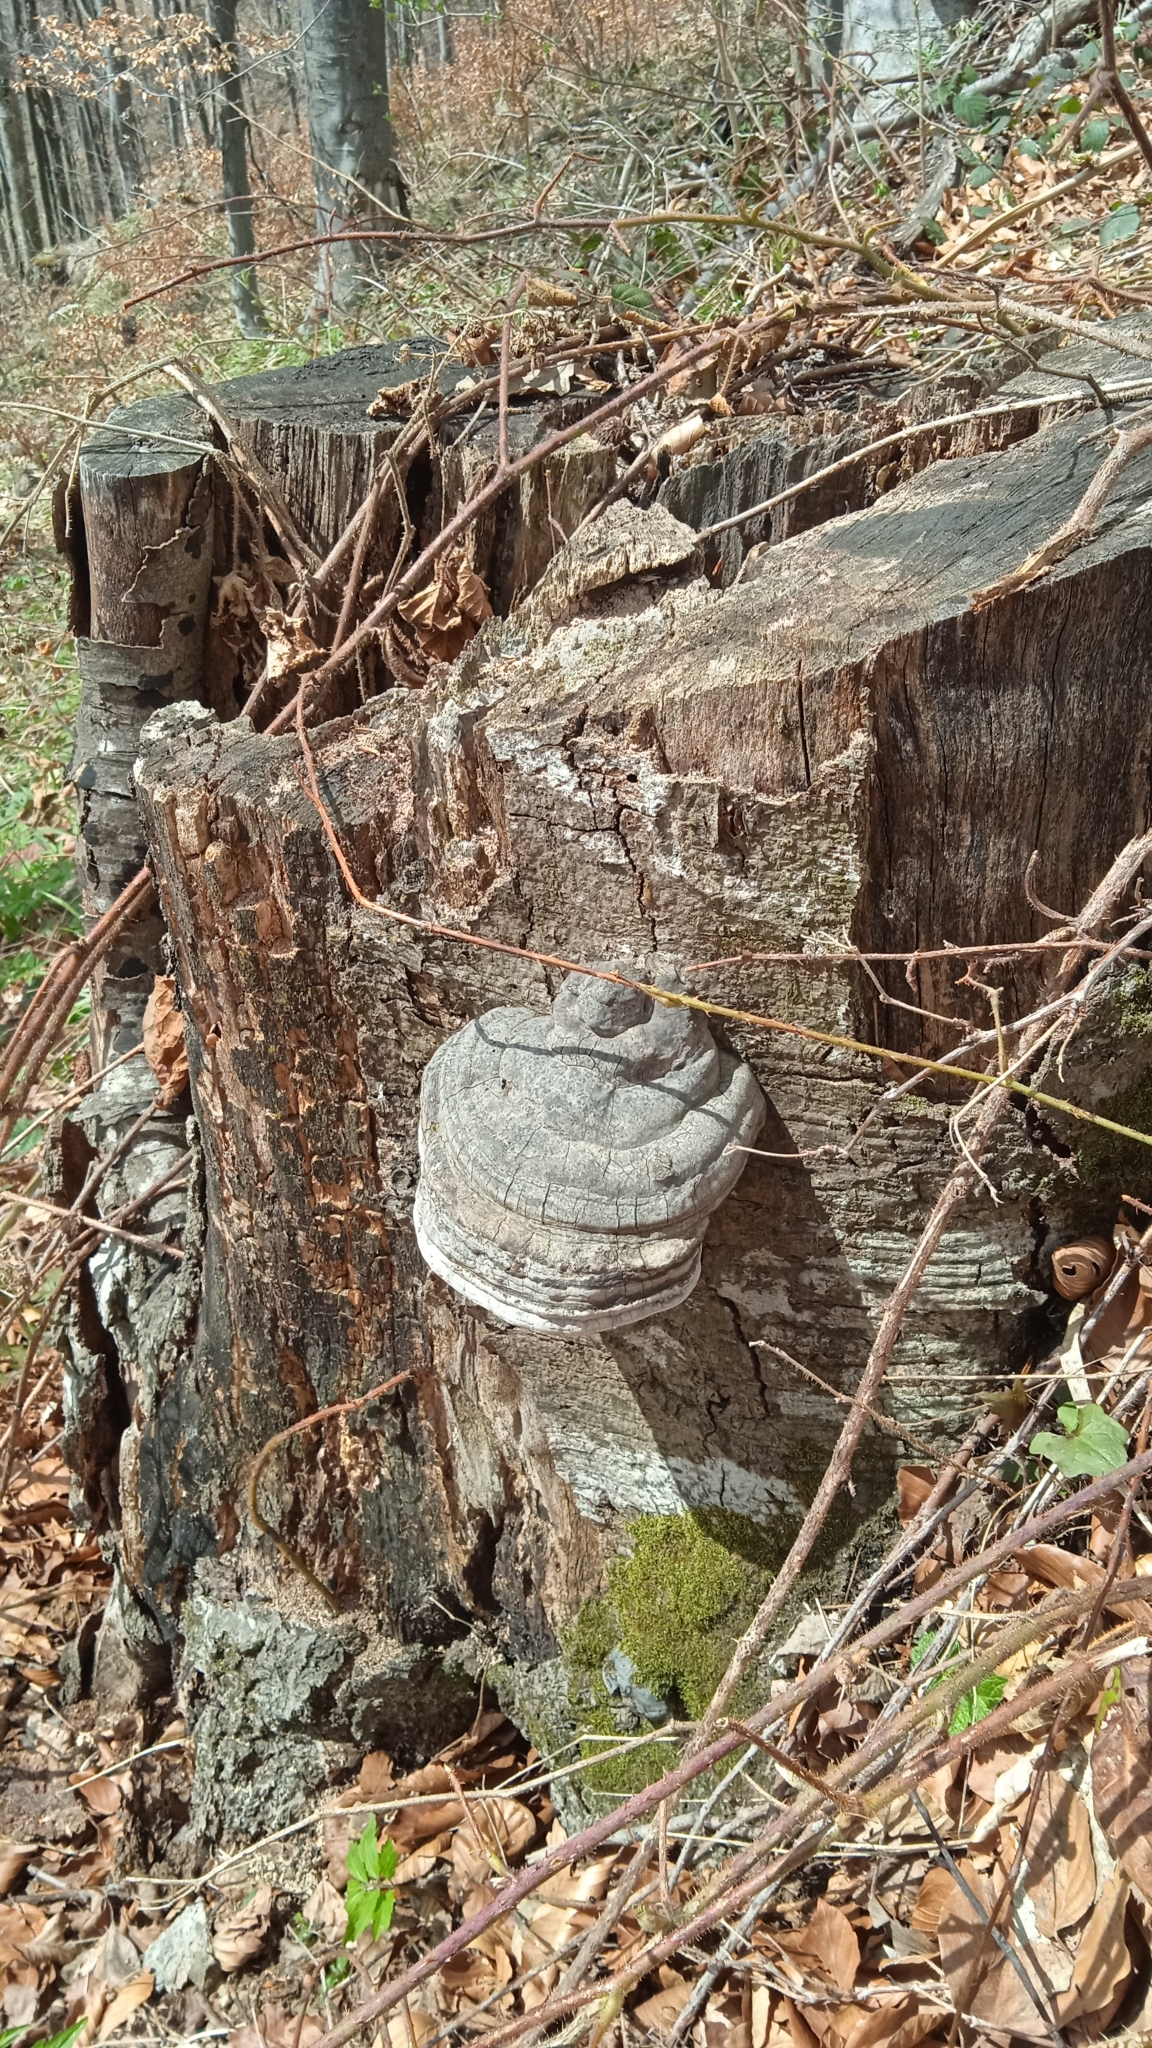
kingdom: Fungi
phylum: Basidiomycota
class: Agaricomycetes
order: Polyporales
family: Polyporaceae
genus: Fomes
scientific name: Fomes fomentarius
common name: Hoof fungus
